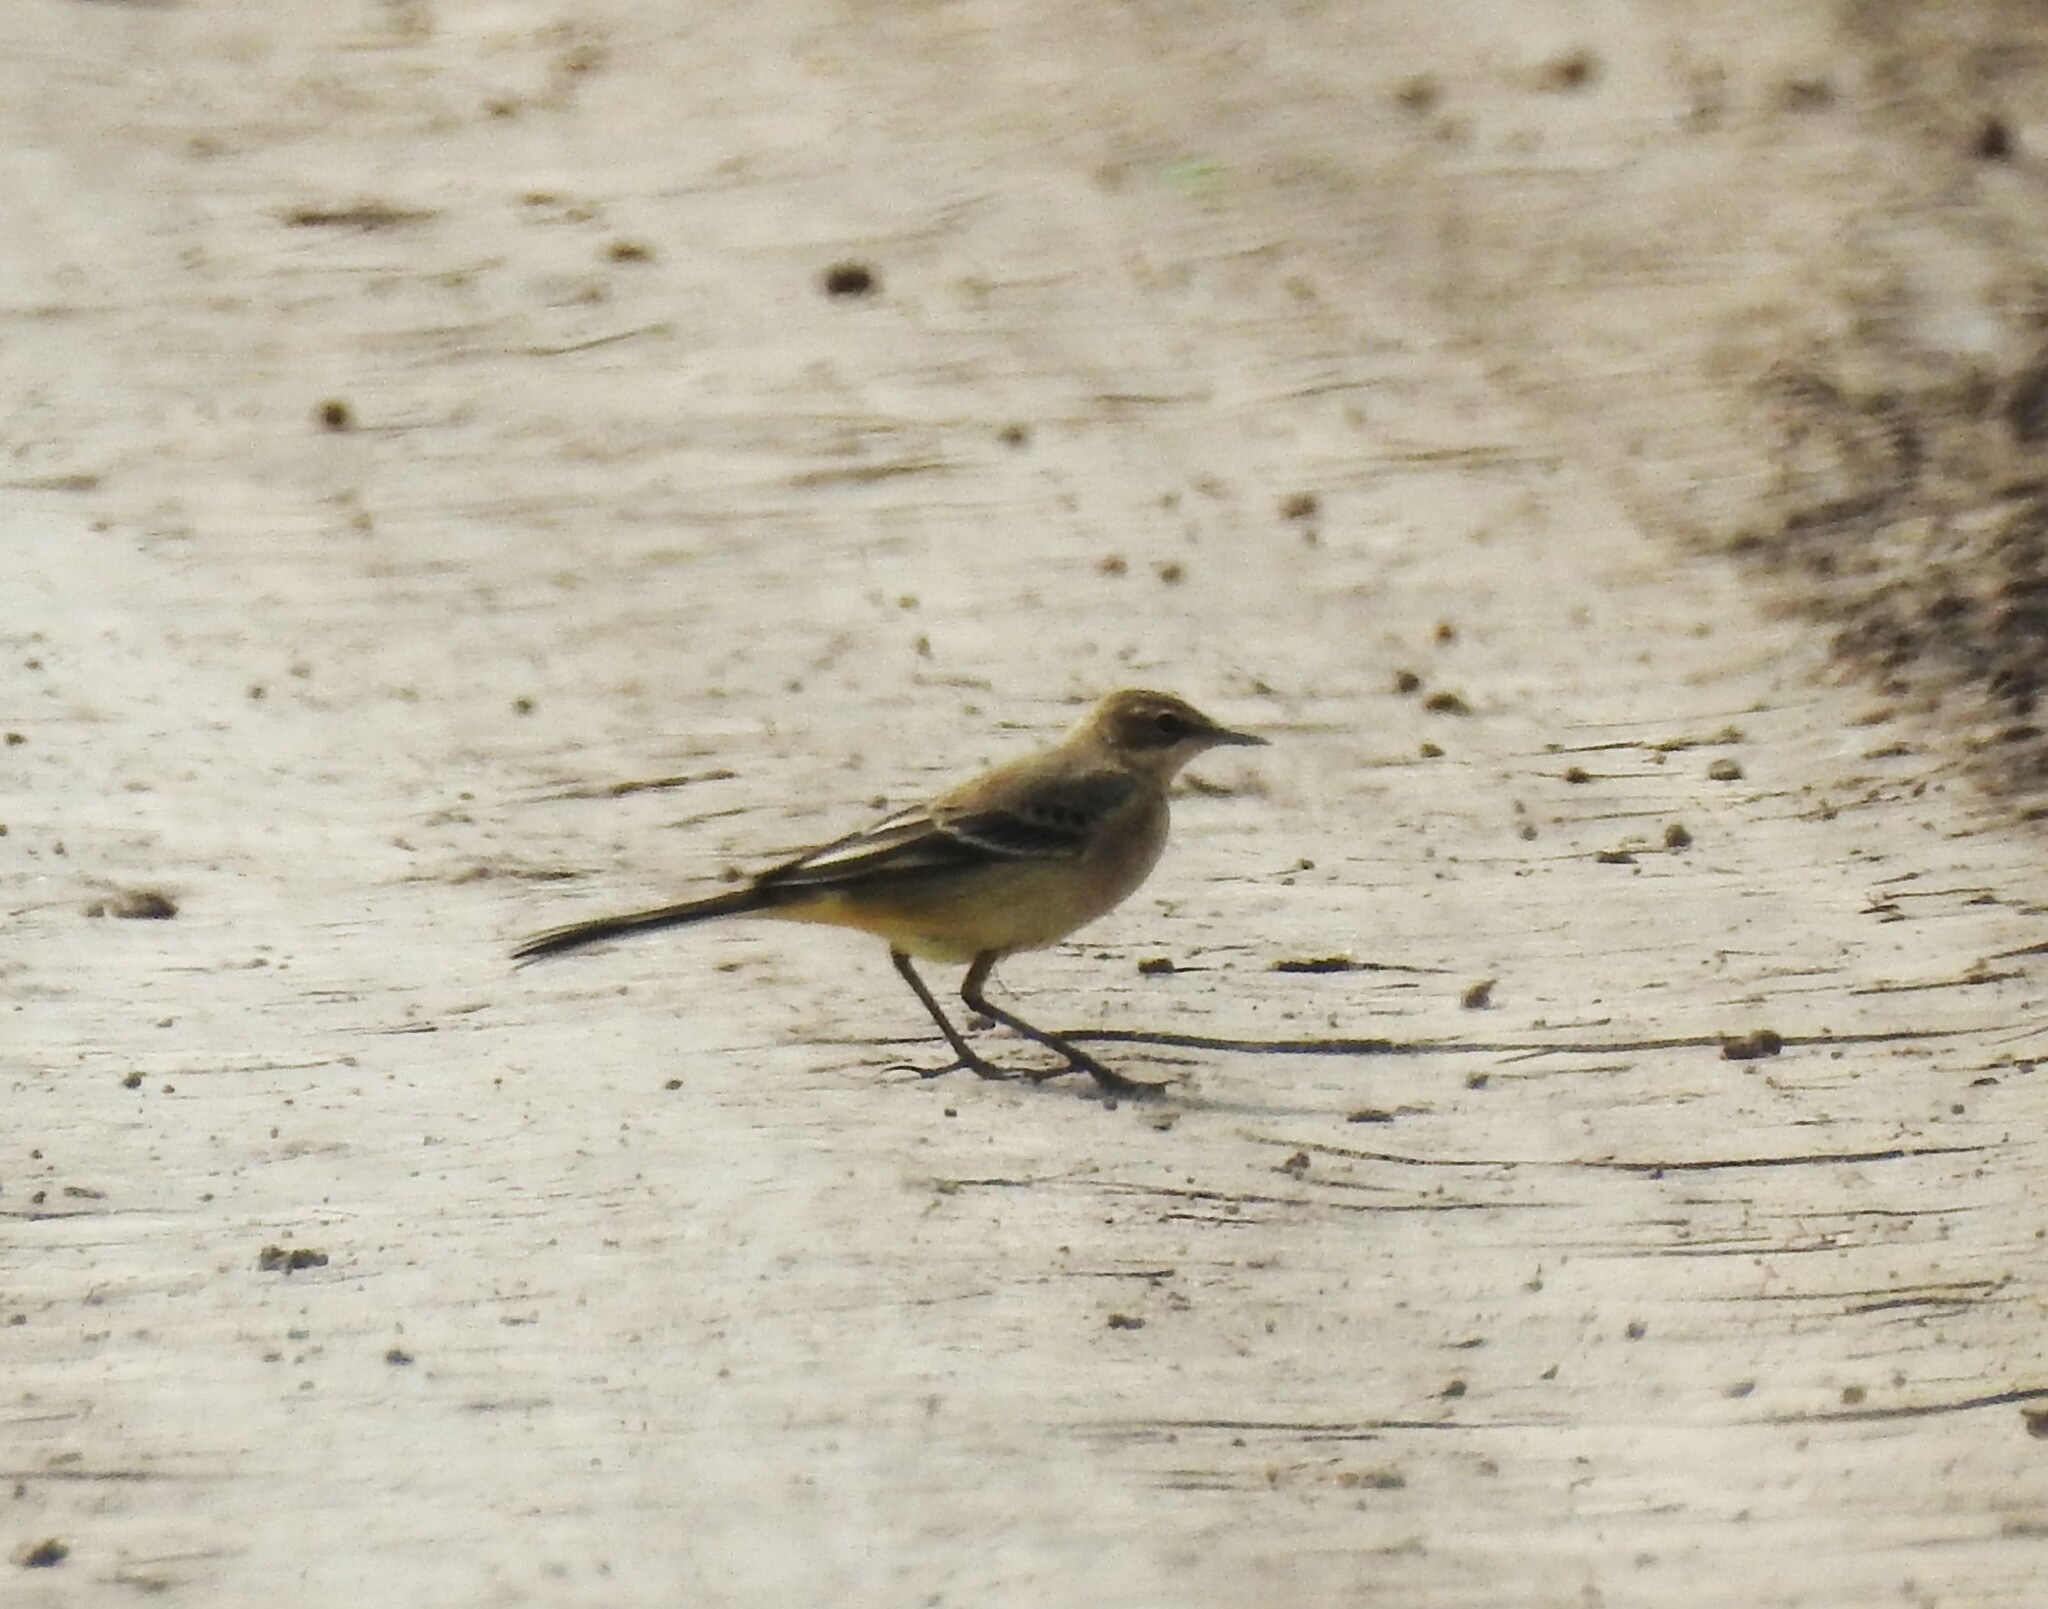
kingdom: Animalia
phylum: Chordata
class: Aves
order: Passeriformes
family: Motacillidae
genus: Motacilla
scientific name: Motacilla flava
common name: Western yellow wagtail
